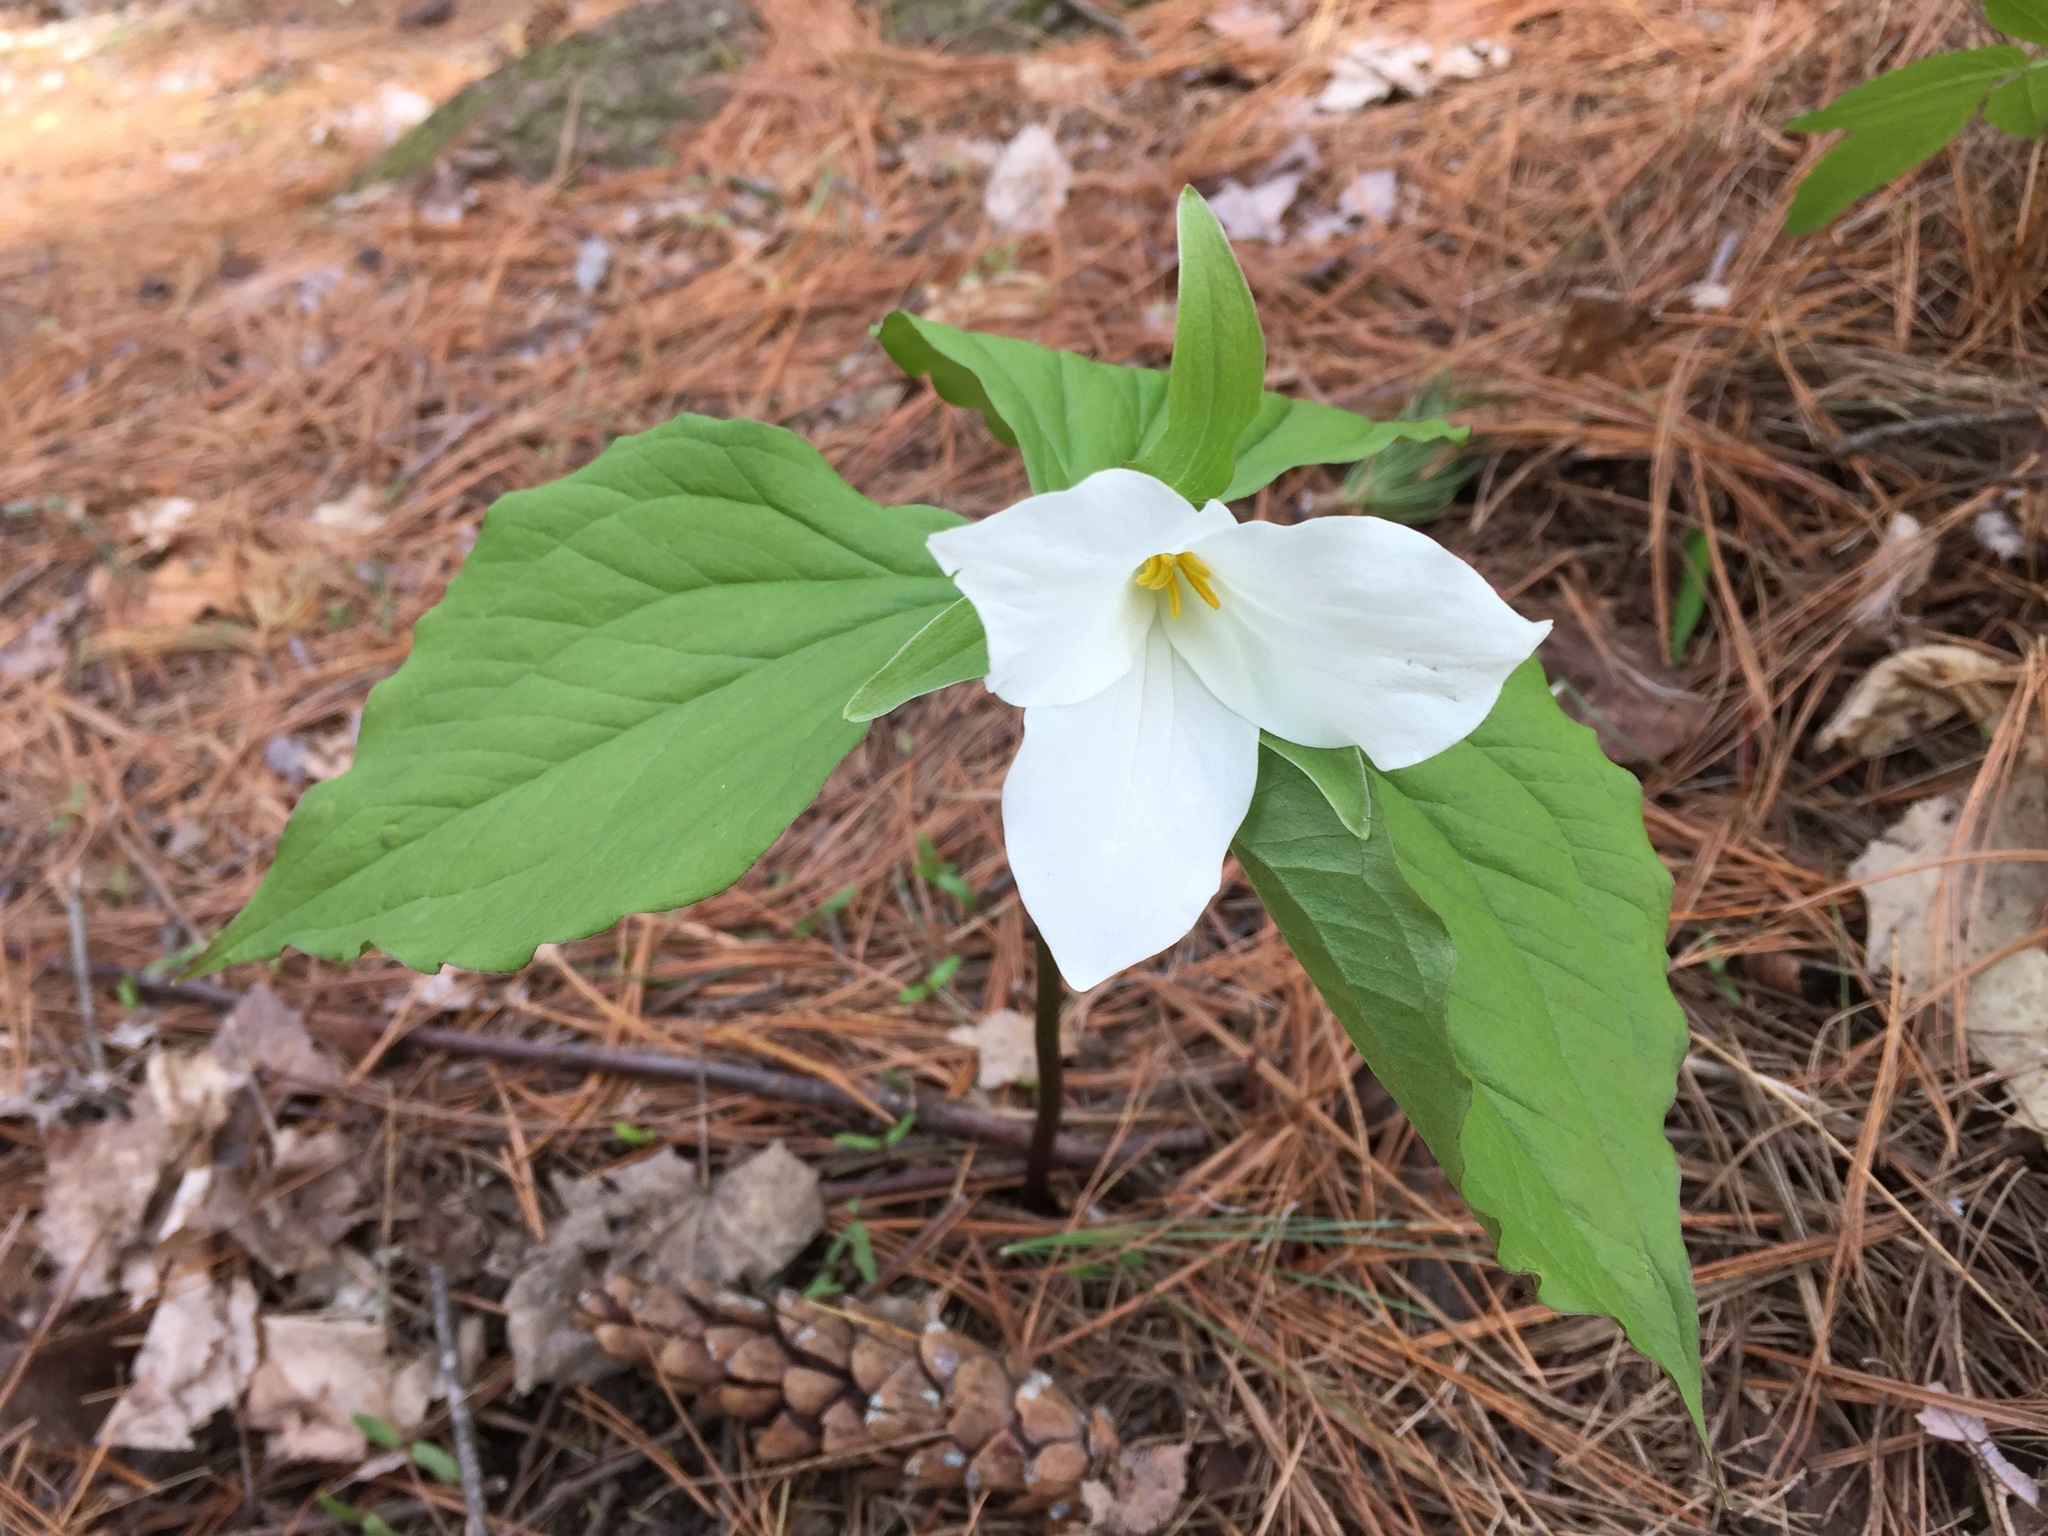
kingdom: Plantae
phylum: Tracheophyta
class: Liliopsida
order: Liliales
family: Melanthiaceae
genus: Trillium
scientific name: Trillium grandiflorum
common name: Great white trillium
